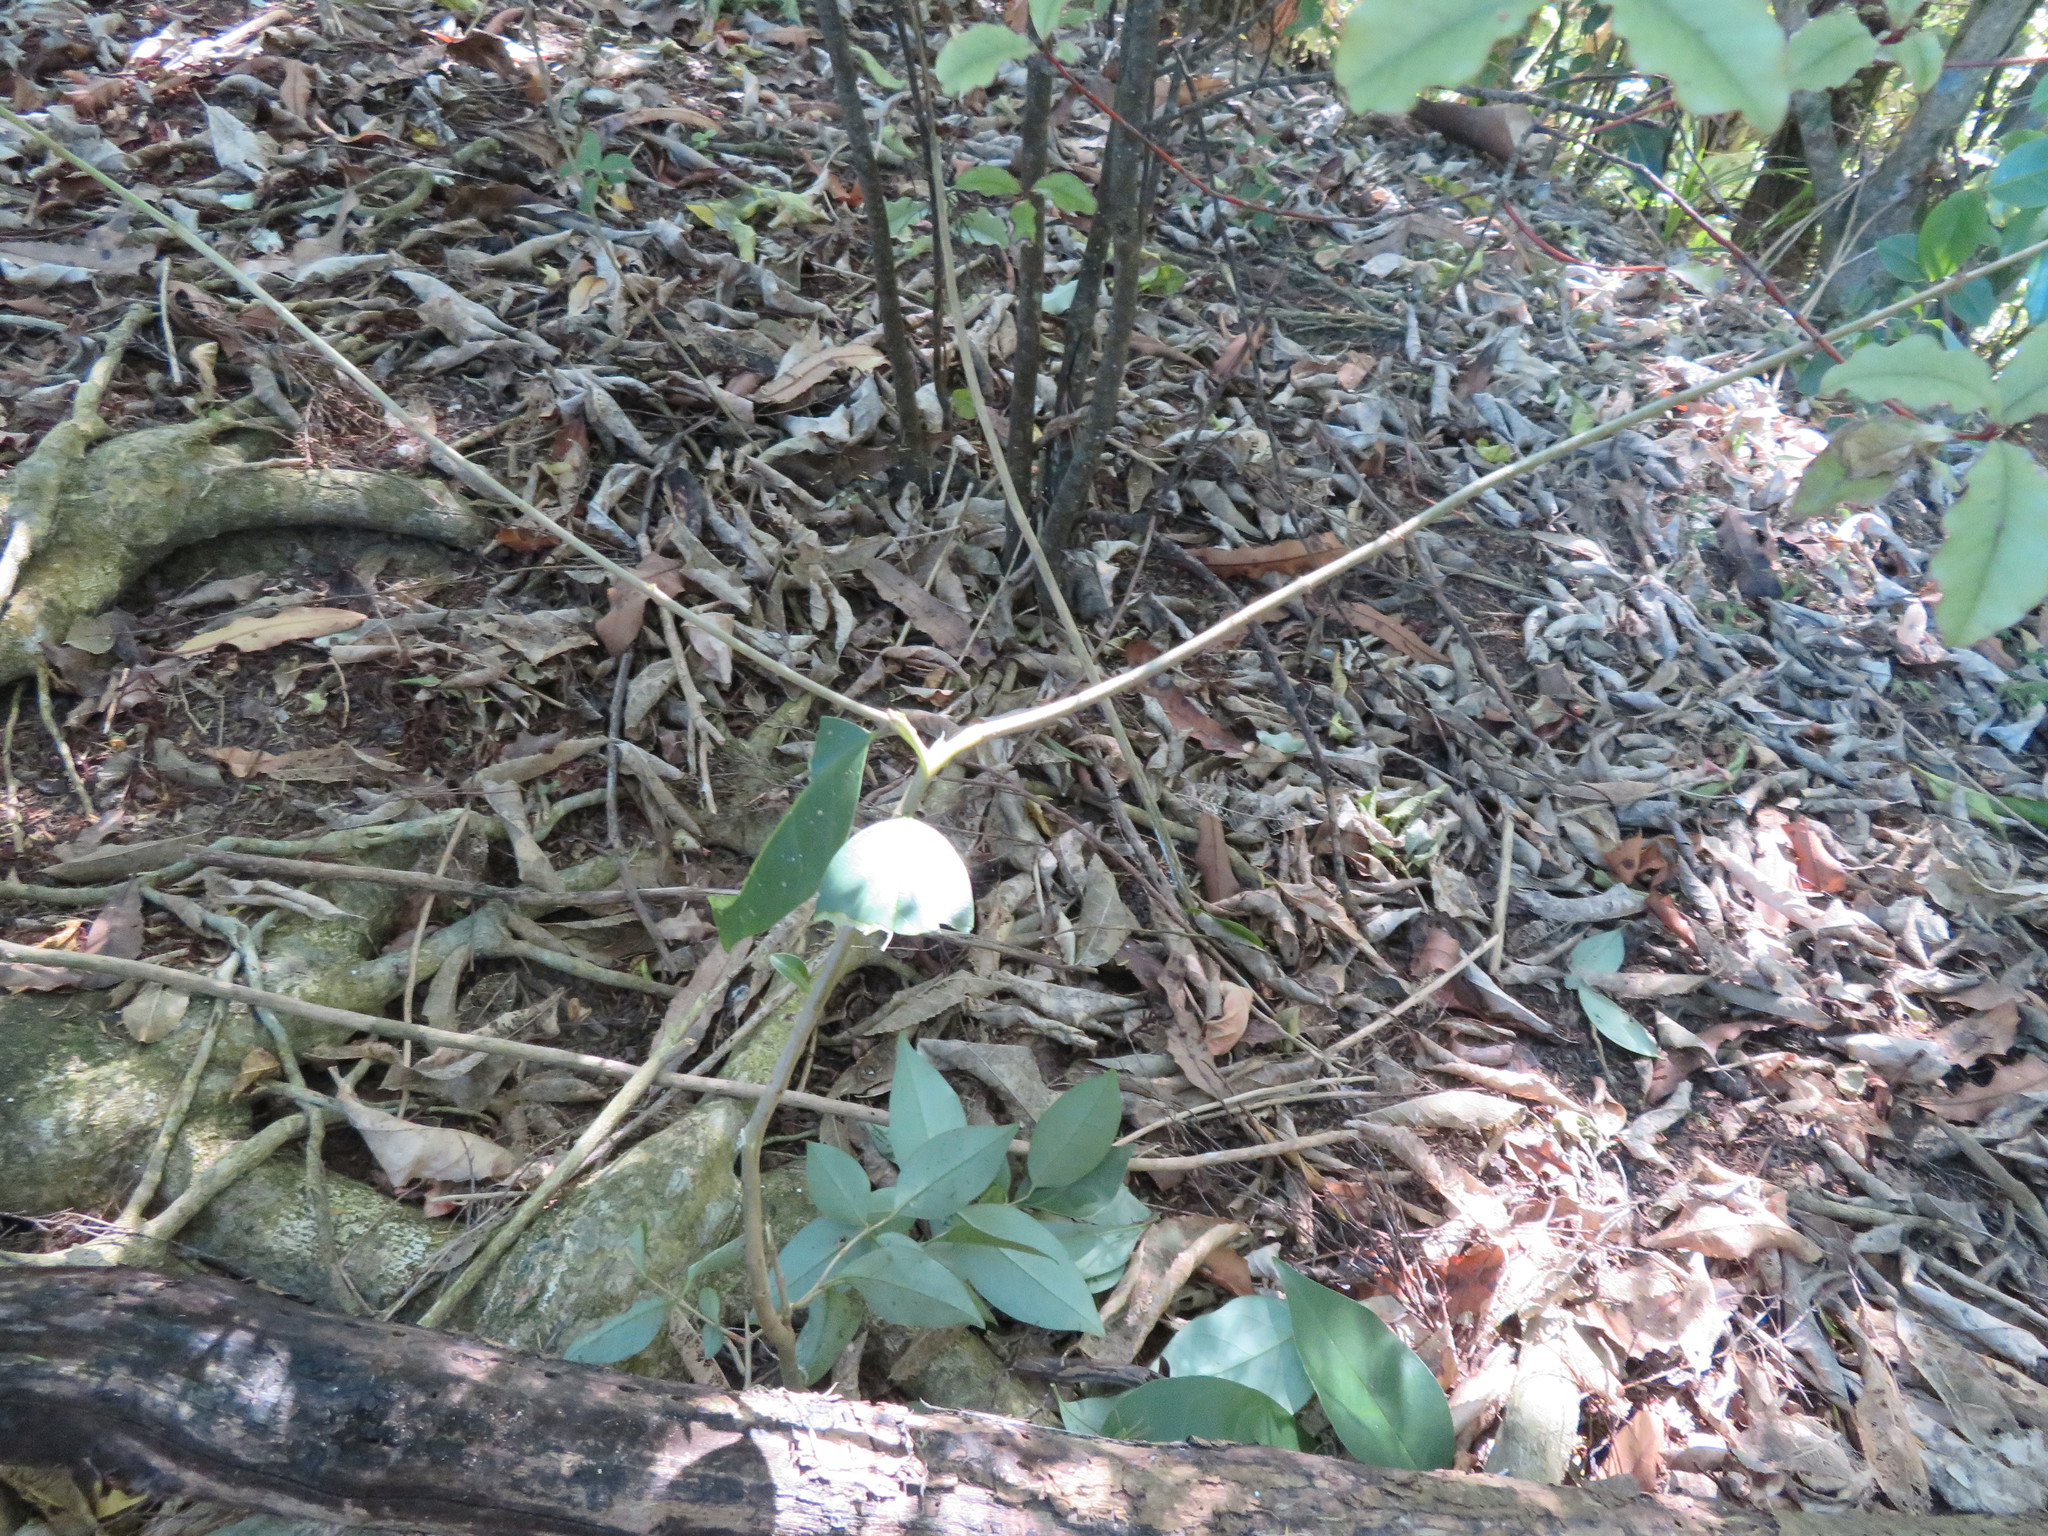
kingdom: Plantae
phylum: Tracheophyta
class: Magnoliopsida
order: Lamiales
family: Oleaceae
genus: Ligustrum
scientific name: Ligustrum lucidum
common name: Glossy privet
